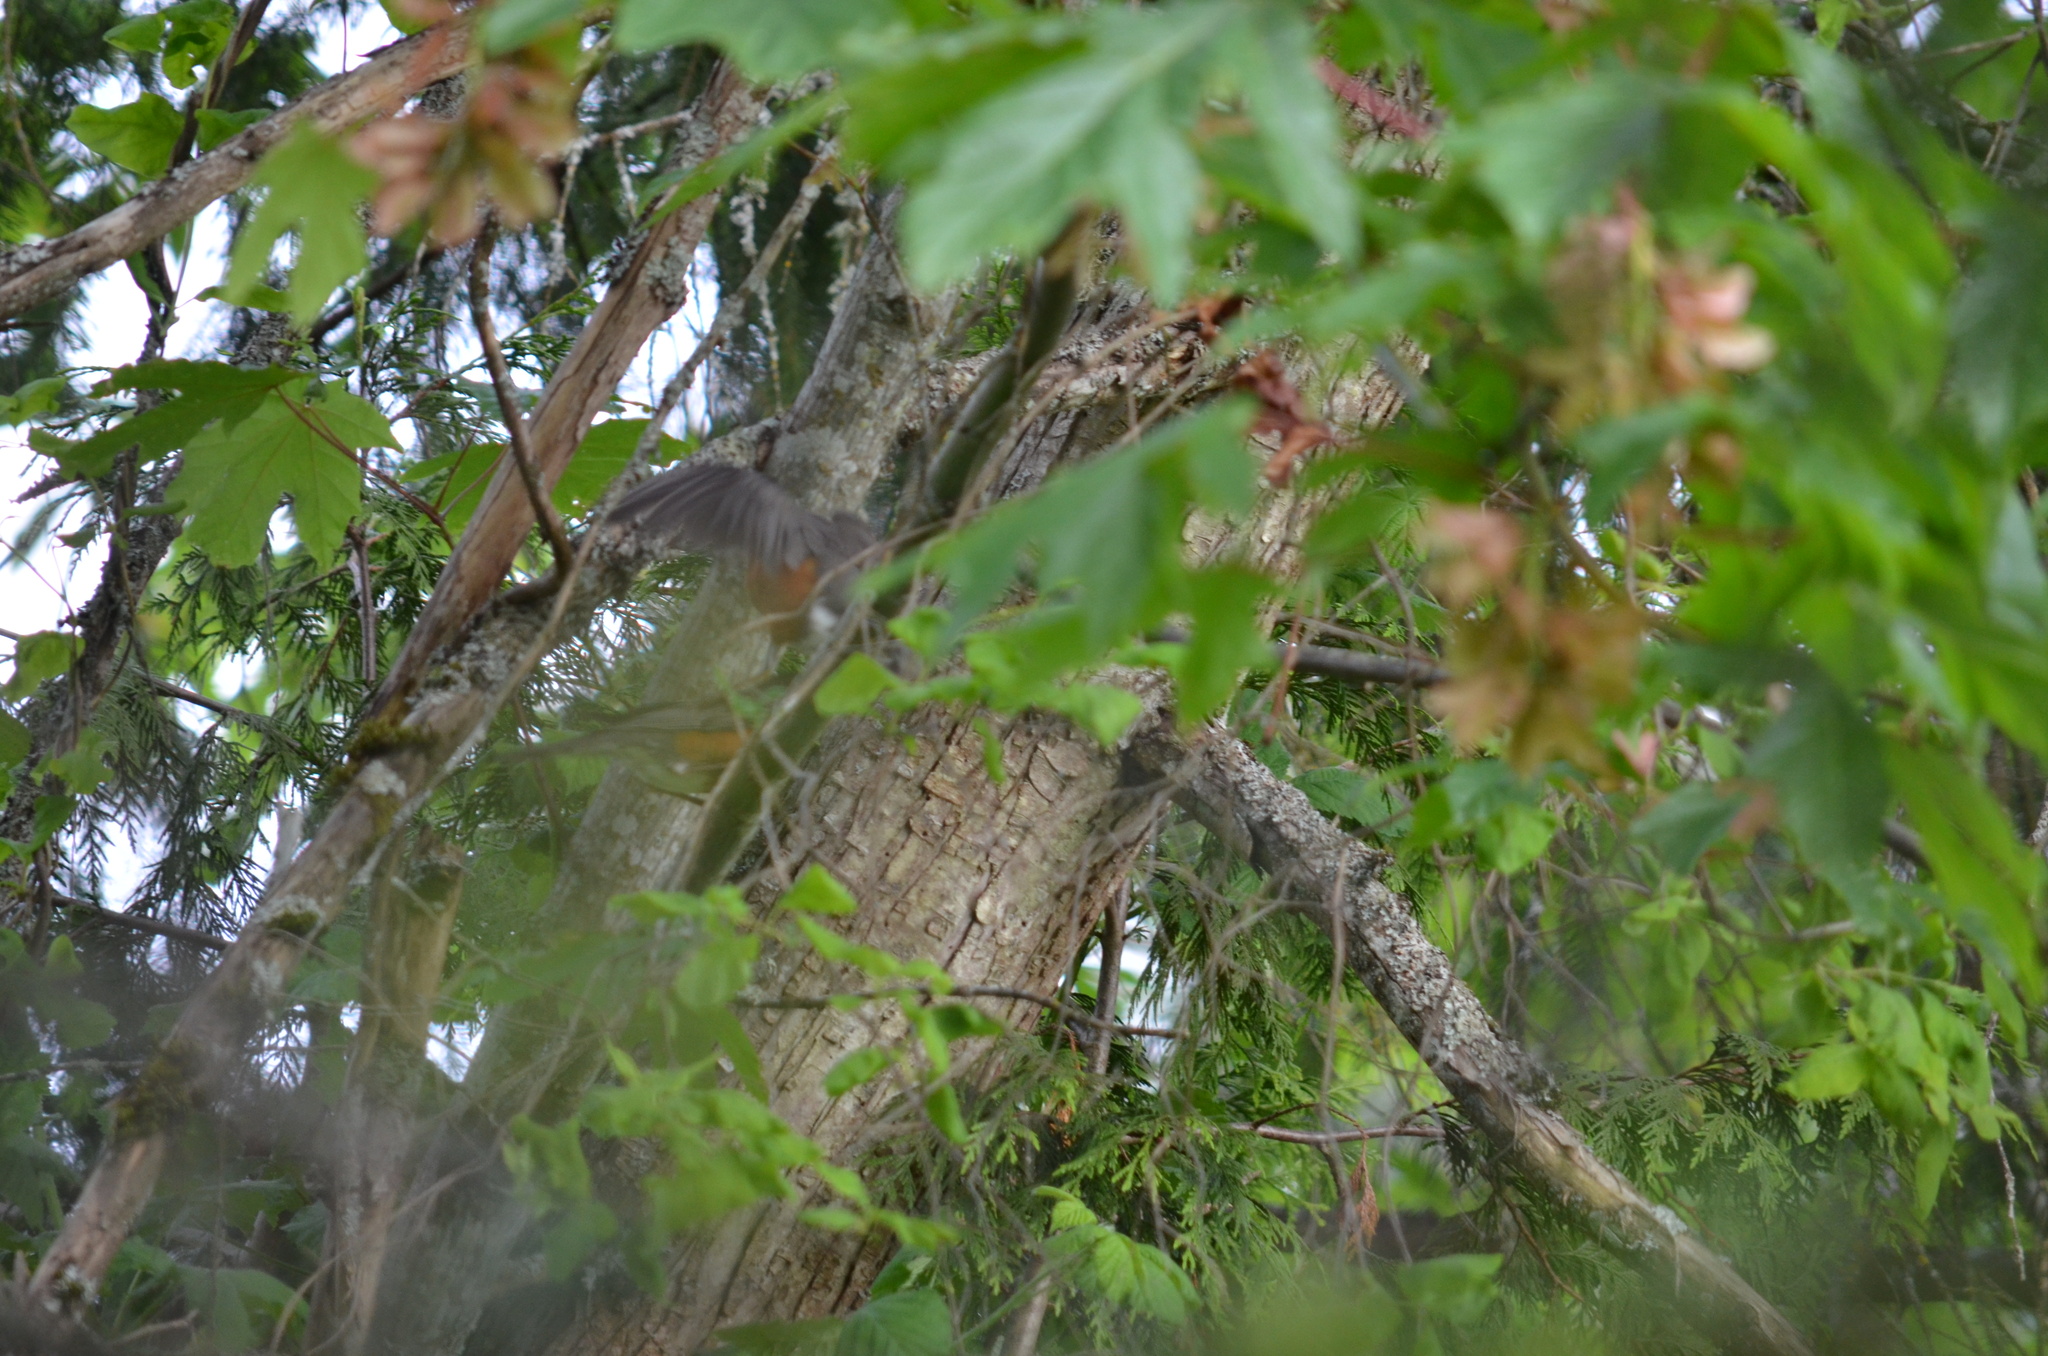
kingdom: Animalia
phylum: Chordata
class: Aves
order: Passeriformes
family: Turdidae
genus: Turdus
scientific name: Turdus migratorius
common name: American robin
